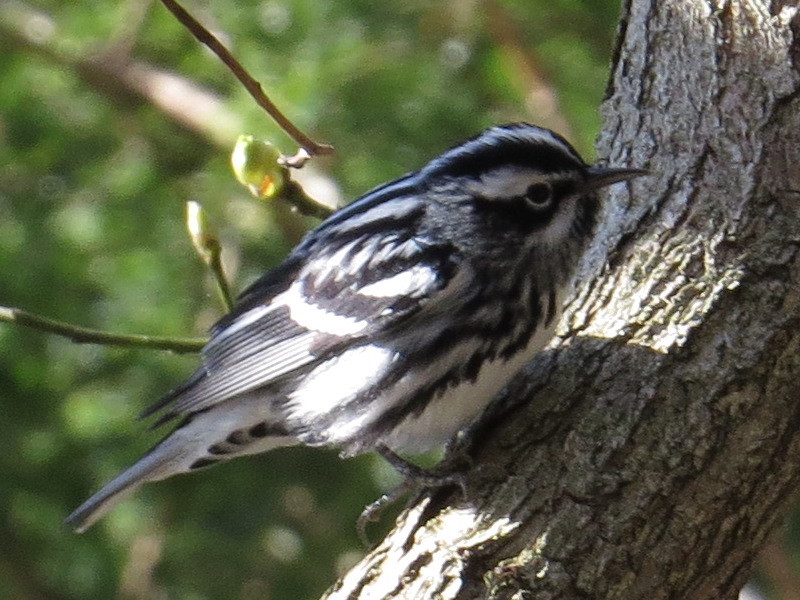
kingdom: Animalia
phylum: Chordata
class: Aves
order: Passeriformes
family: Parulidae
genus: Mniotilta
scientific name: Mniotilta varia
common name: Black-and-white warbler
